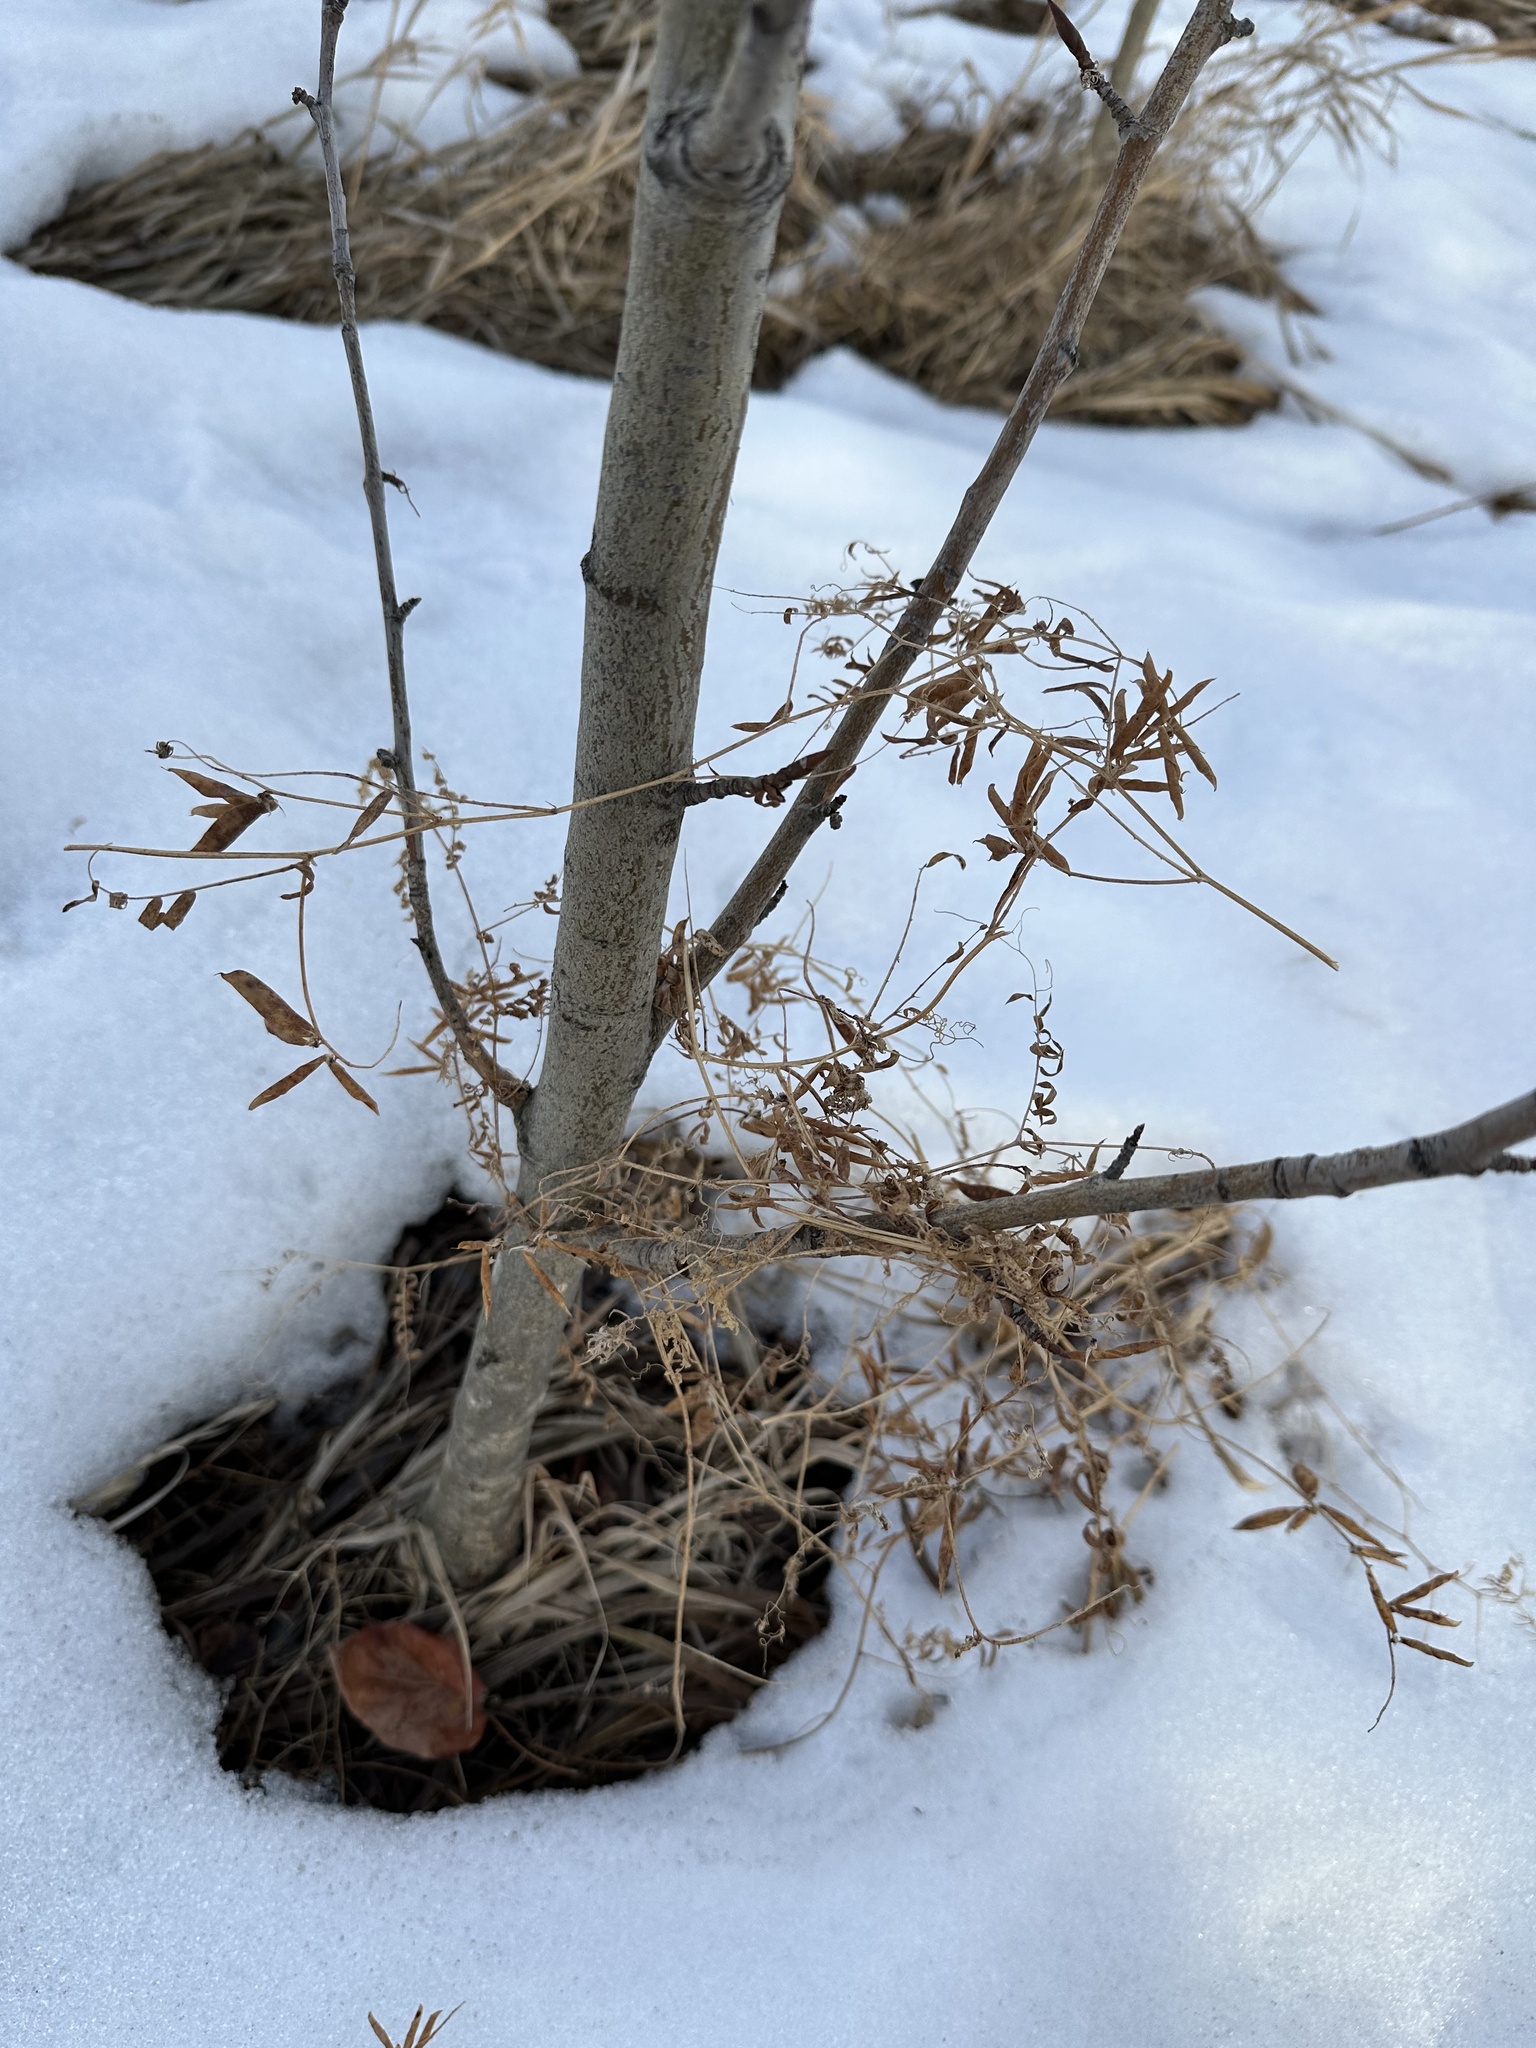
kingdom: Plantae
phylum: Tracheophyta
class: Magnoliopsida
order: Fabales
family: Fabaceae
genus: Vicia
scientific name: Vicia cracca
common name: Bird vetch
